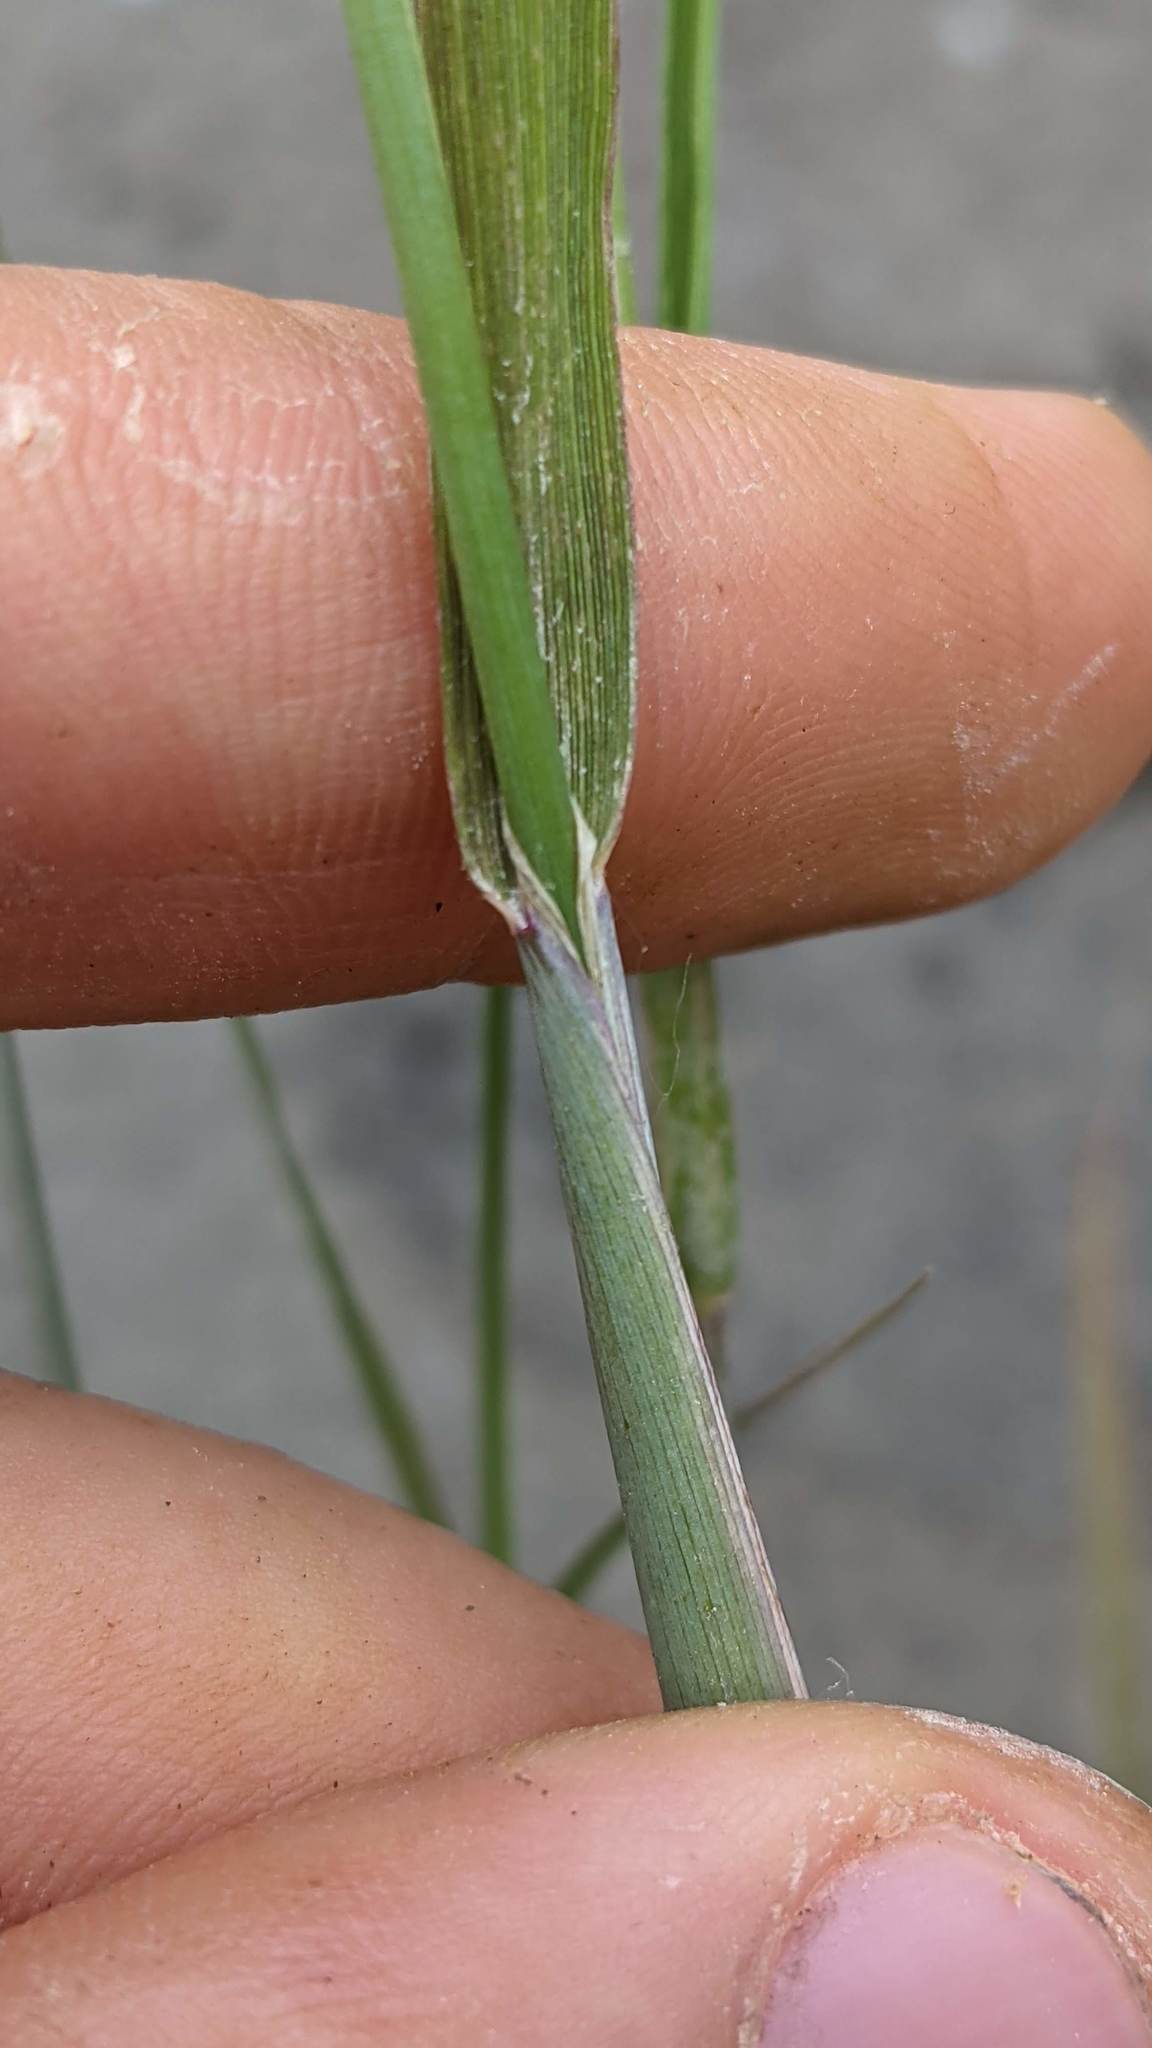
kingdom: Plantae
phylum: Tracheophyta
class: Liliopsida
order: Poales
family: Poaceae
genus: Alopecurus
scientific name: Alopecurus aequalis
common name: Orange foxtail
